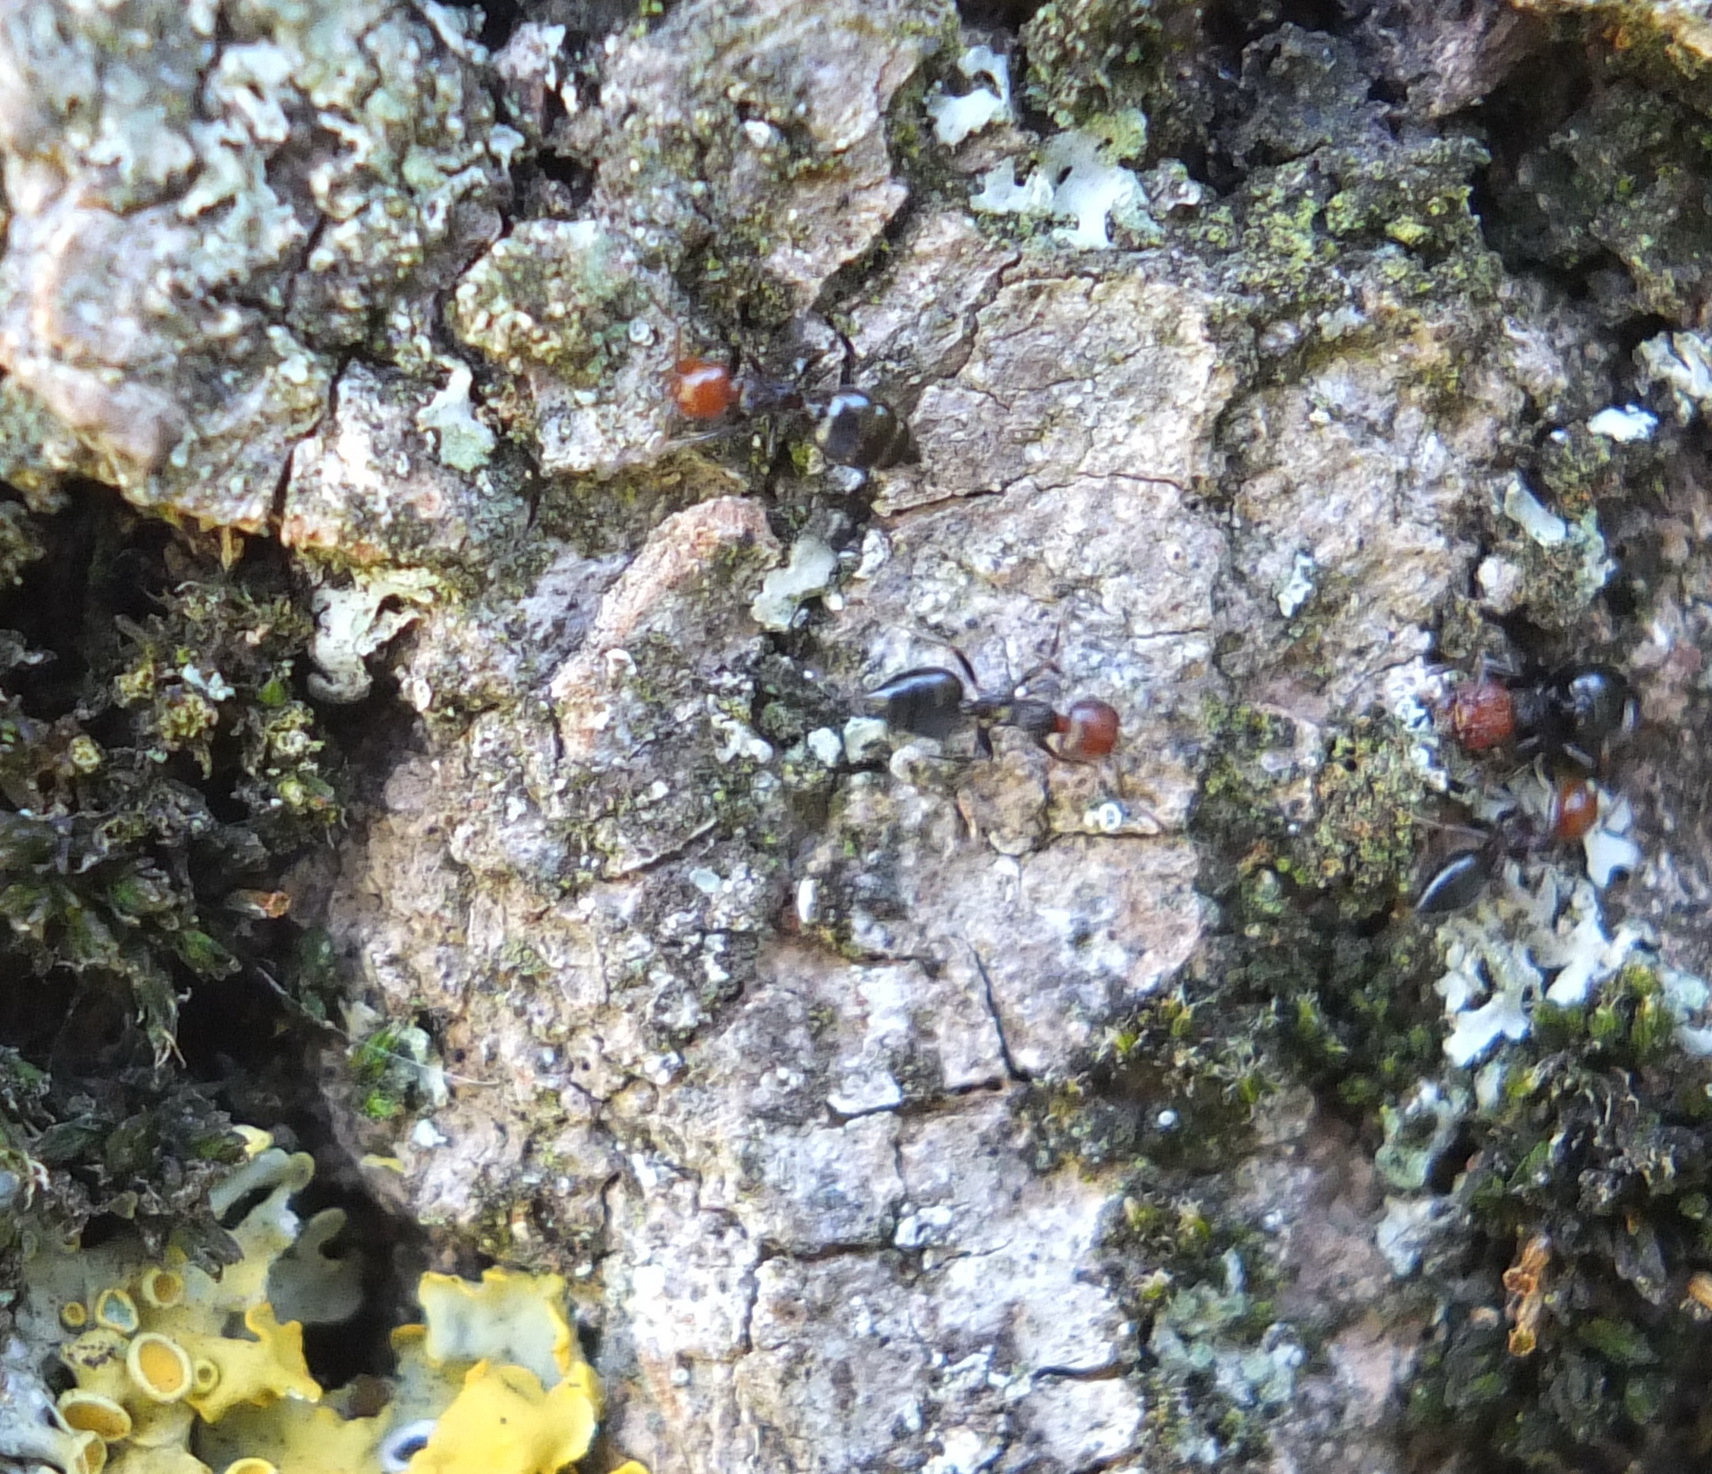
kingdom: Animalia
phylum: Arthropoda
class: Insecta
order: Hymenoptera
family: Formicidae
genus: Crematogaster
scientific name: Crematogaster scutellaris
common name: Fourmi du liège
